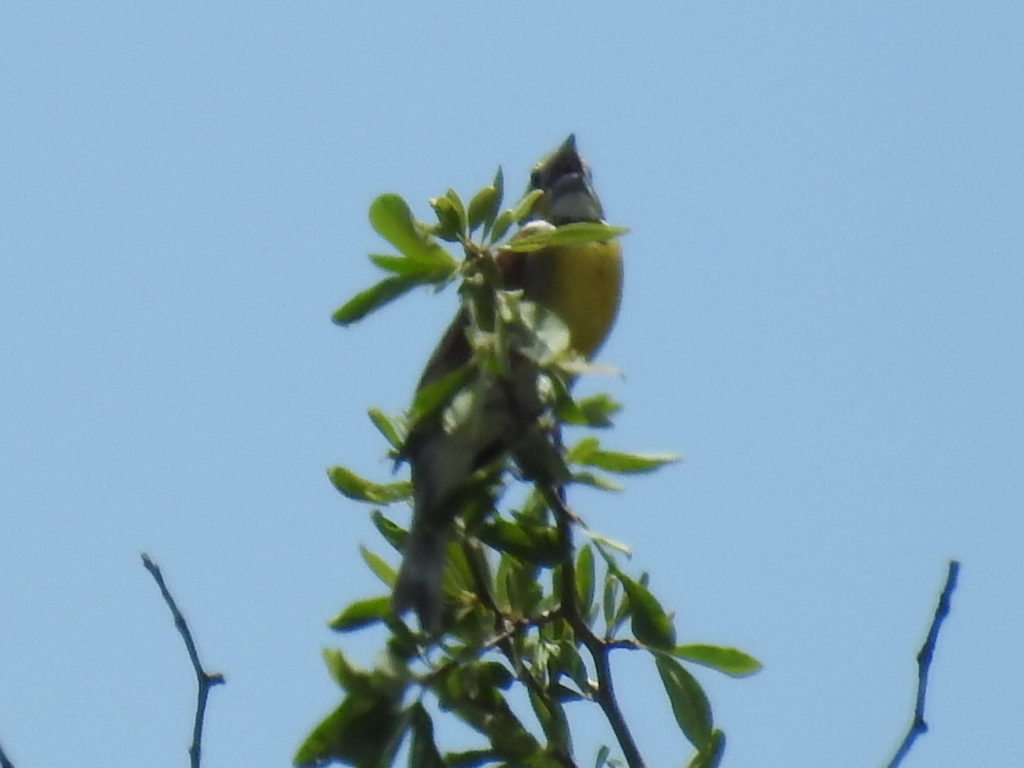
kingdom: Animalia
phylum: Chordata
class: Aves
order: Passeriformes
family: Cardinalidae
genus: Spiza
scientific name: Spiza americana
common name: Dickcissel
